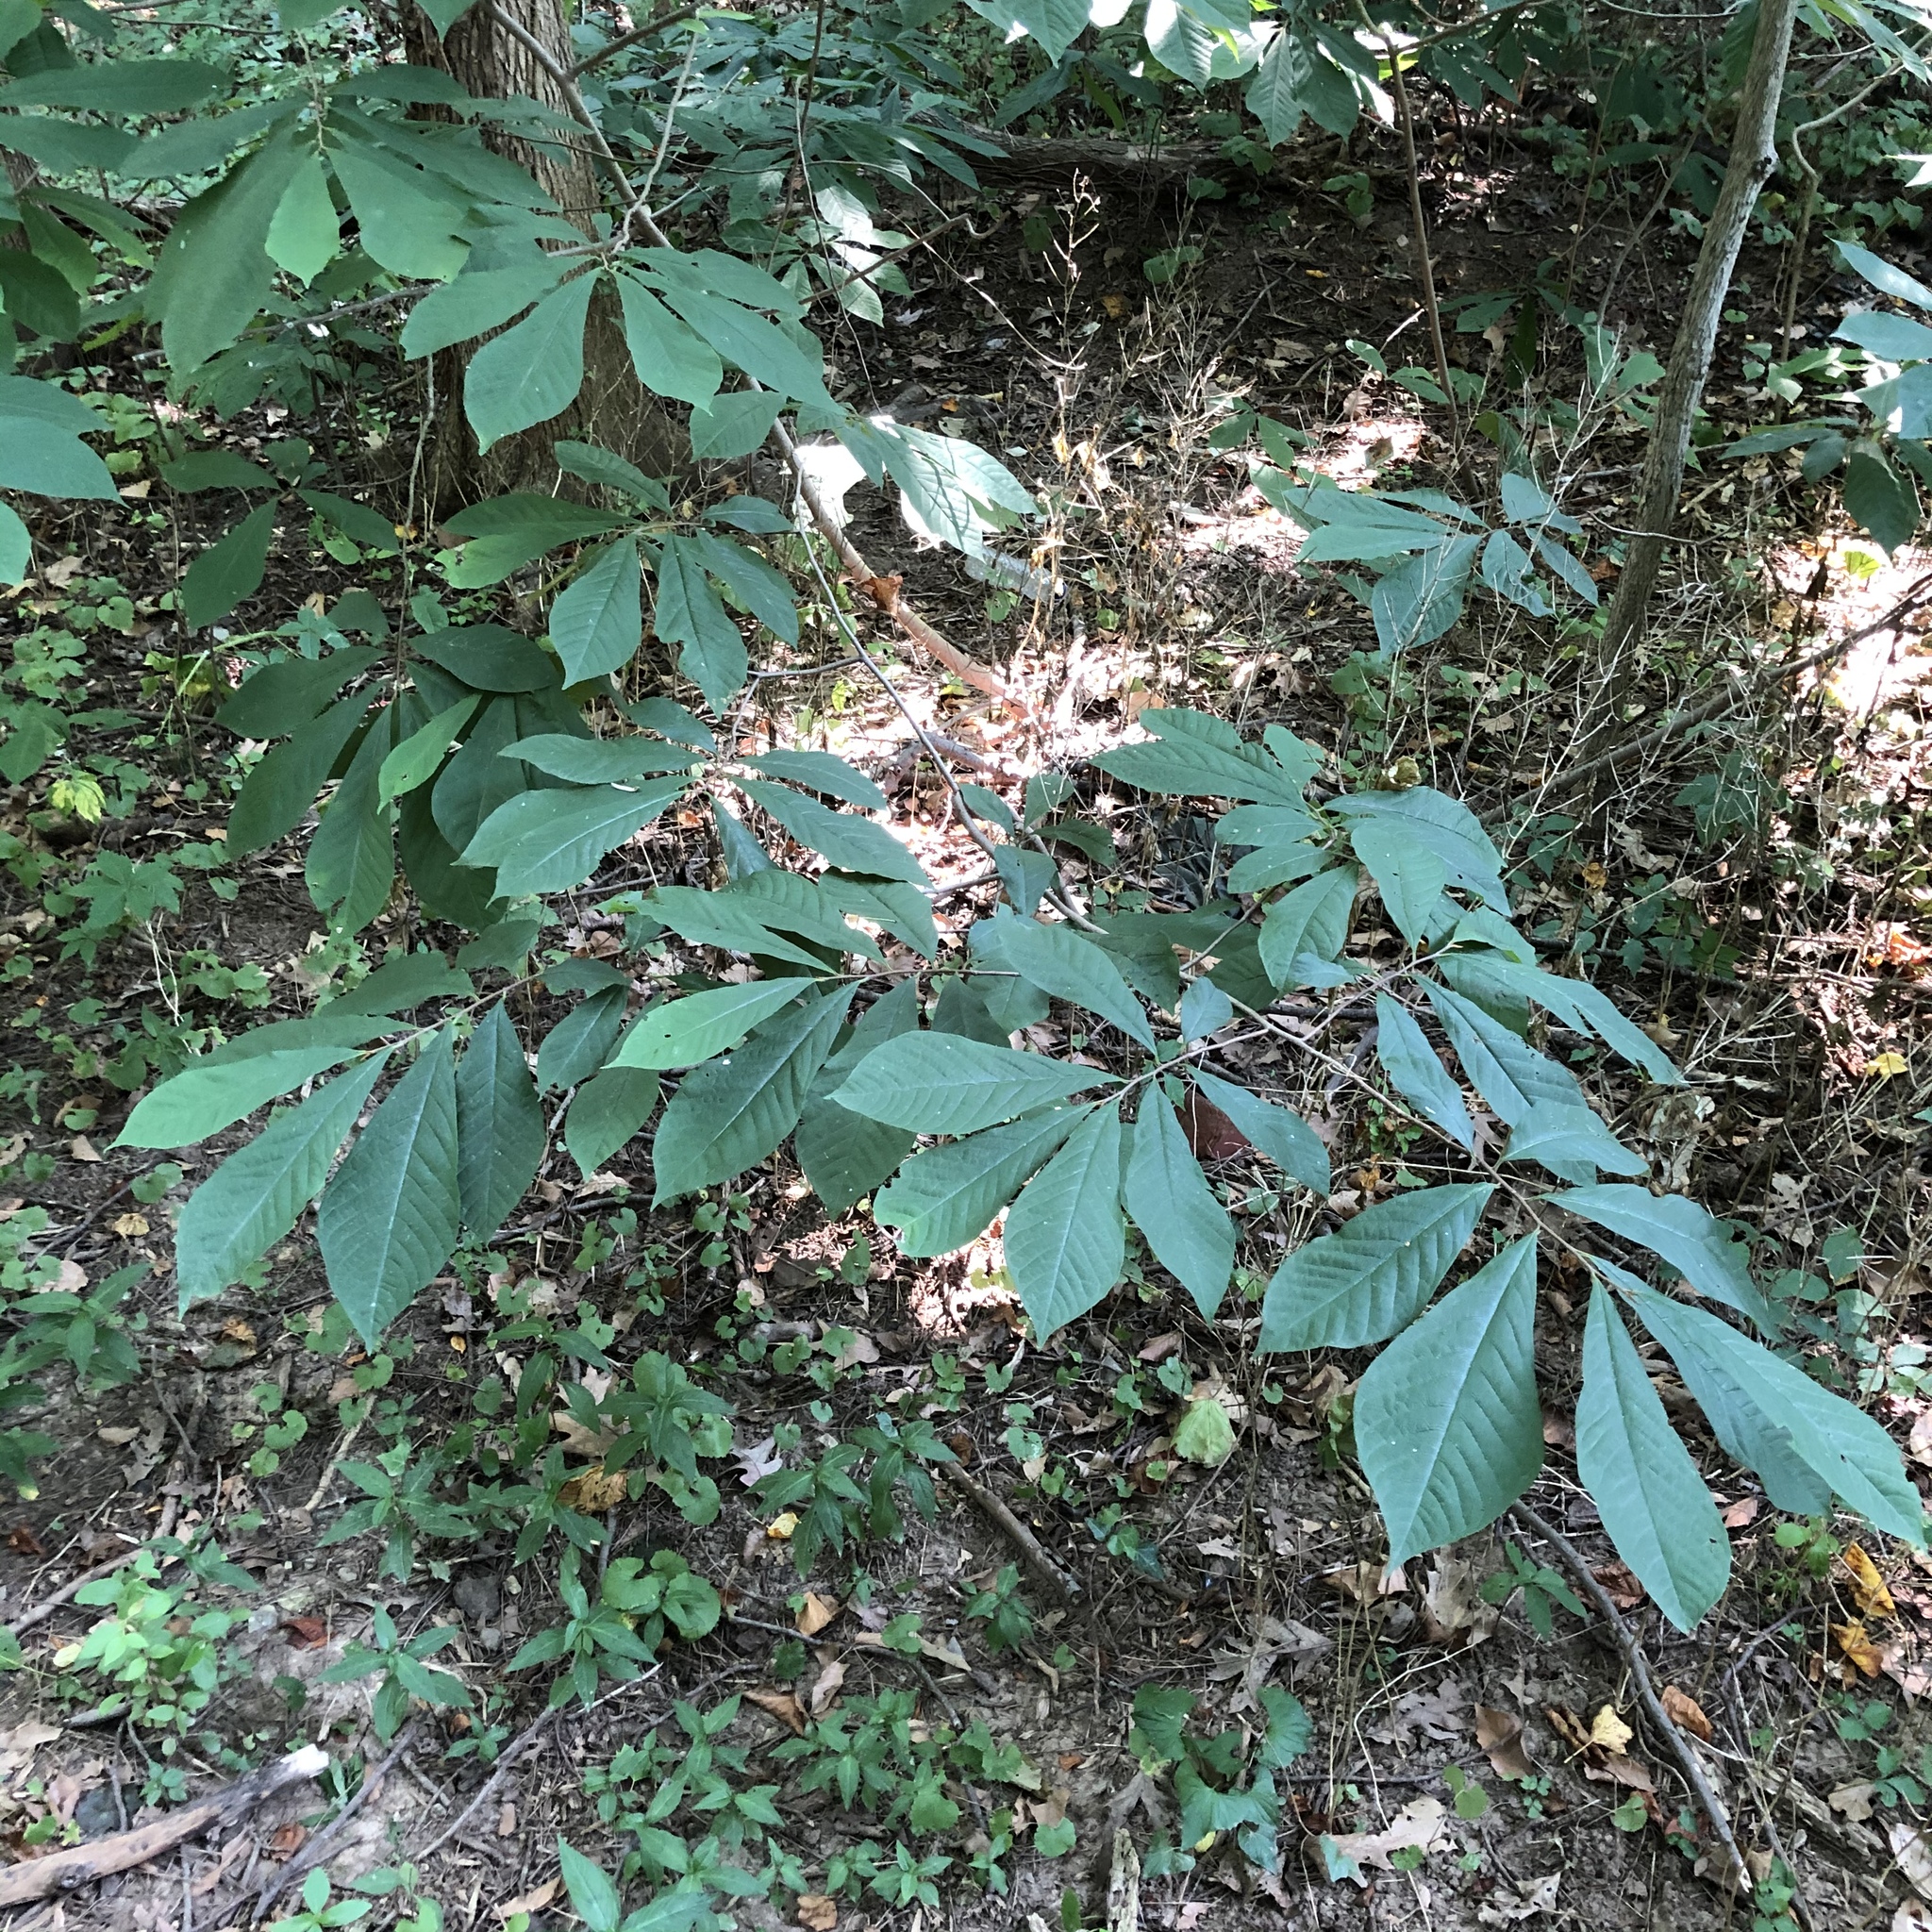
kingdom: Plantae
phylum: Tracheophyta
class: Magnoliopsida
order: Magnoliales
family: Annonaceae
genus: Asimina
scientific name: Asimina triloba
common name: Dog-banana
